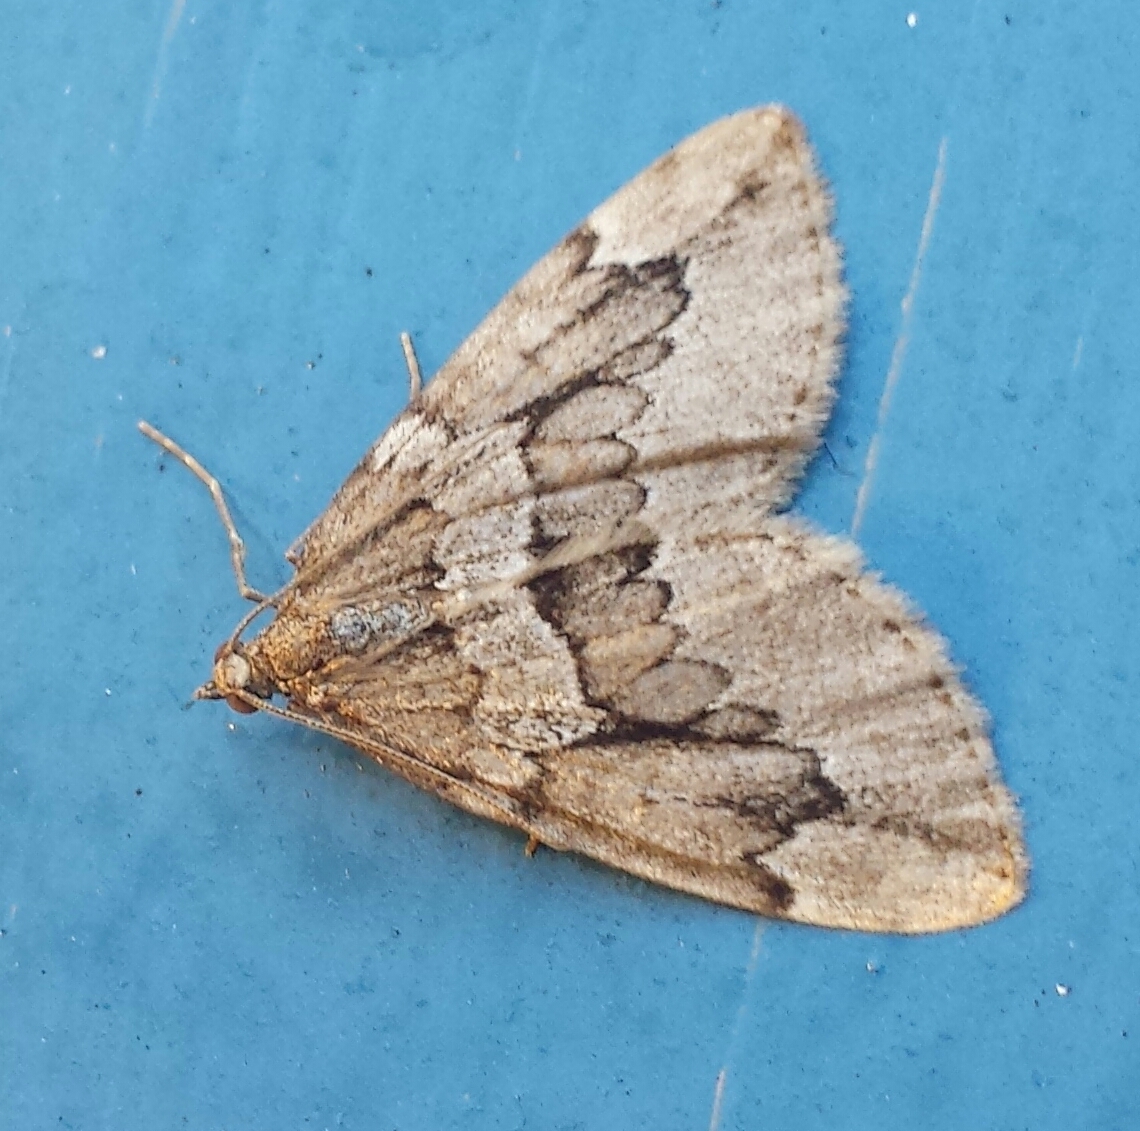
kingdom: Animalia
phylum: Arthropoda
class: Insecta
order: Lepidoptera
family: Geometridae
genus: Thera
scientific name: Thera juniperata
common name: Juniper carpet
